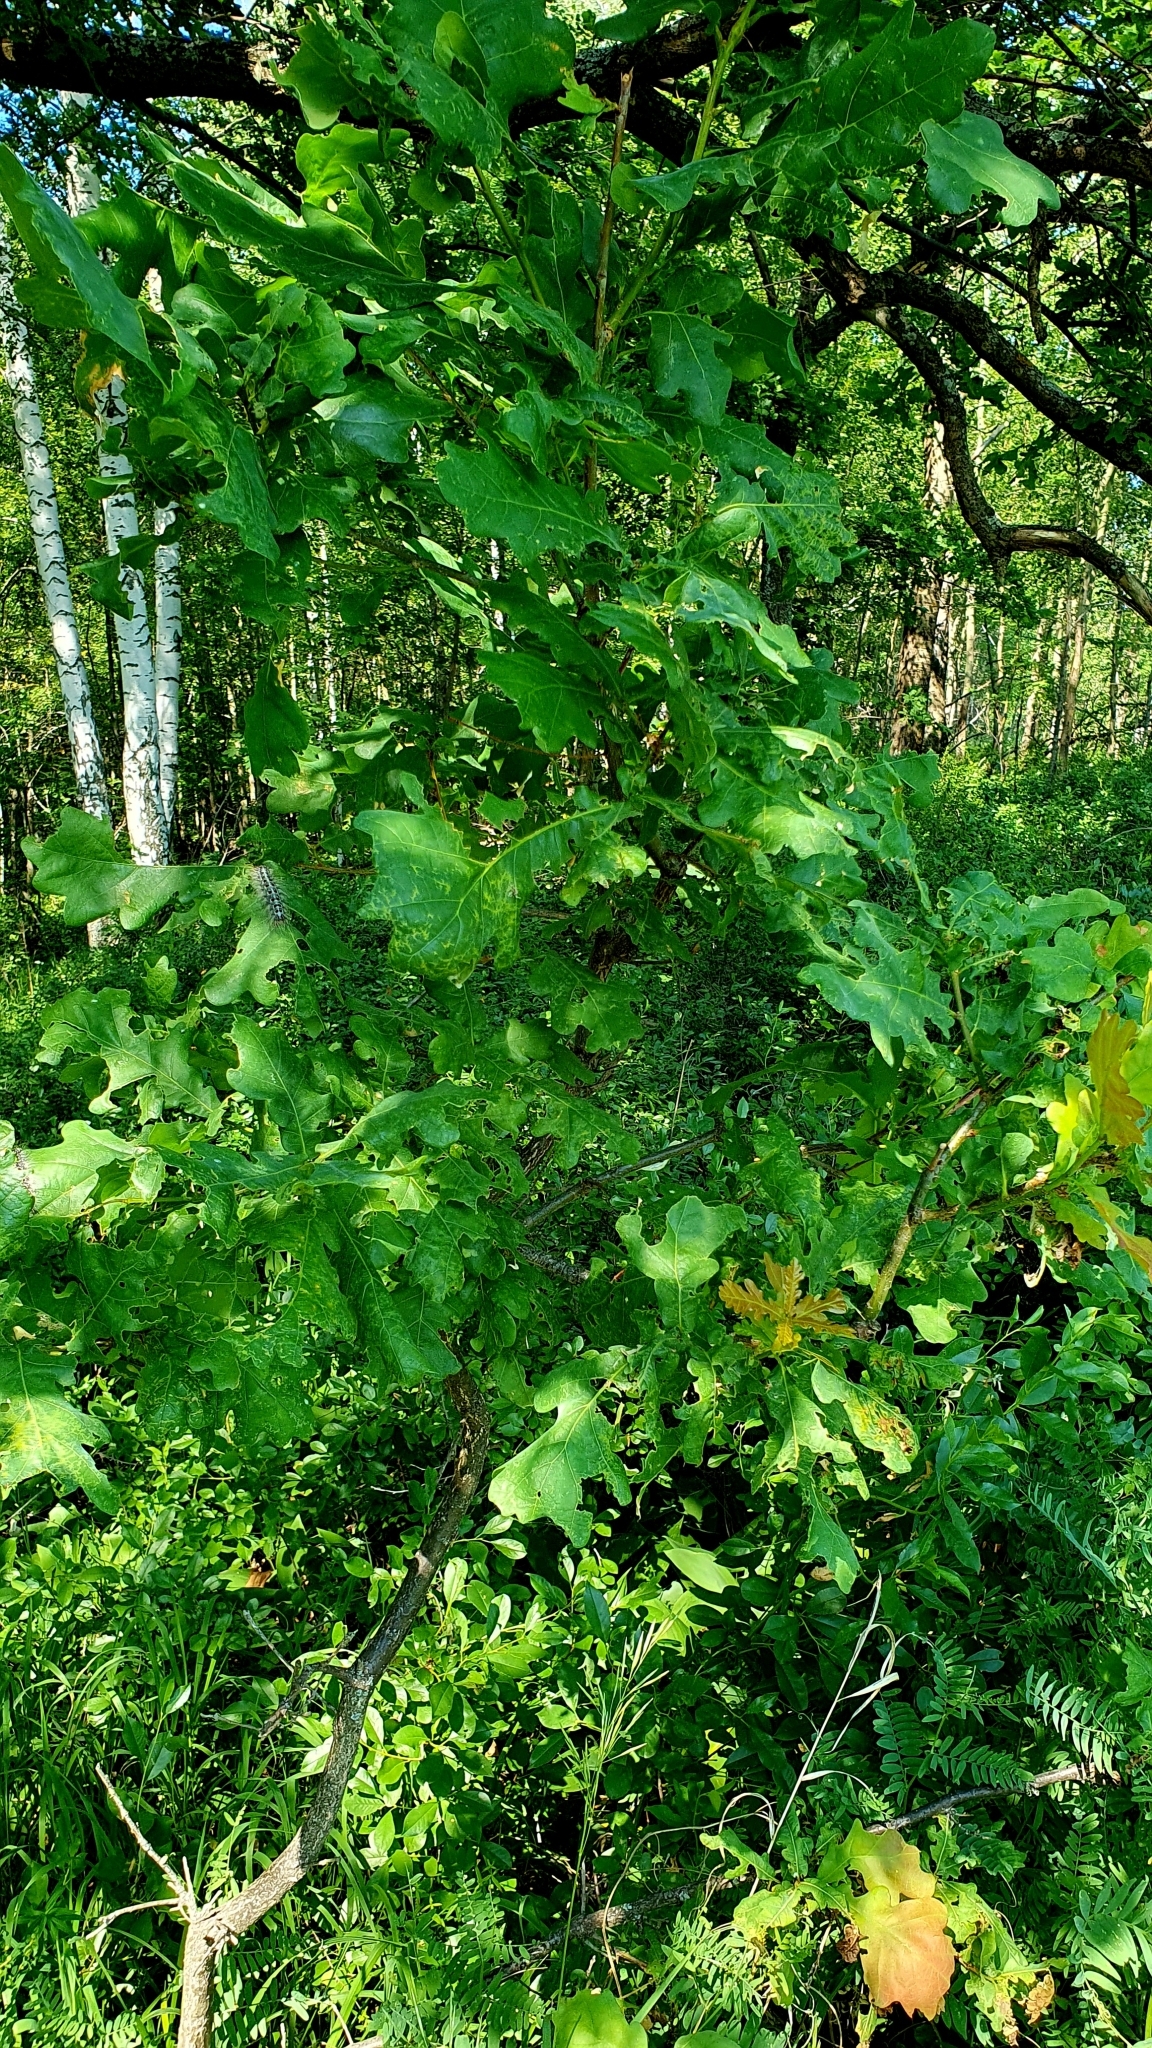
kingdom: Plantae
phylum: Tracheophyta
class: Magnoliopsida
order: Fagales
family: Fagaceae
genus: Quercus
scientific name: Quercus robur
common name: Pedunculate oak
